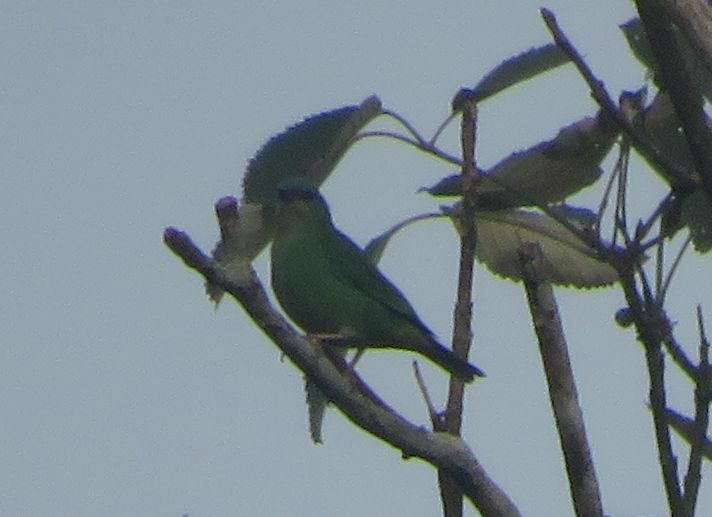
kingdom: Animalia
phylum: Chordata
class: Aves
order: Passeriformes
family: Thraupidae
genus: Dacnis
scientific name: Dacnis cayana
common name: Blue dacnis
